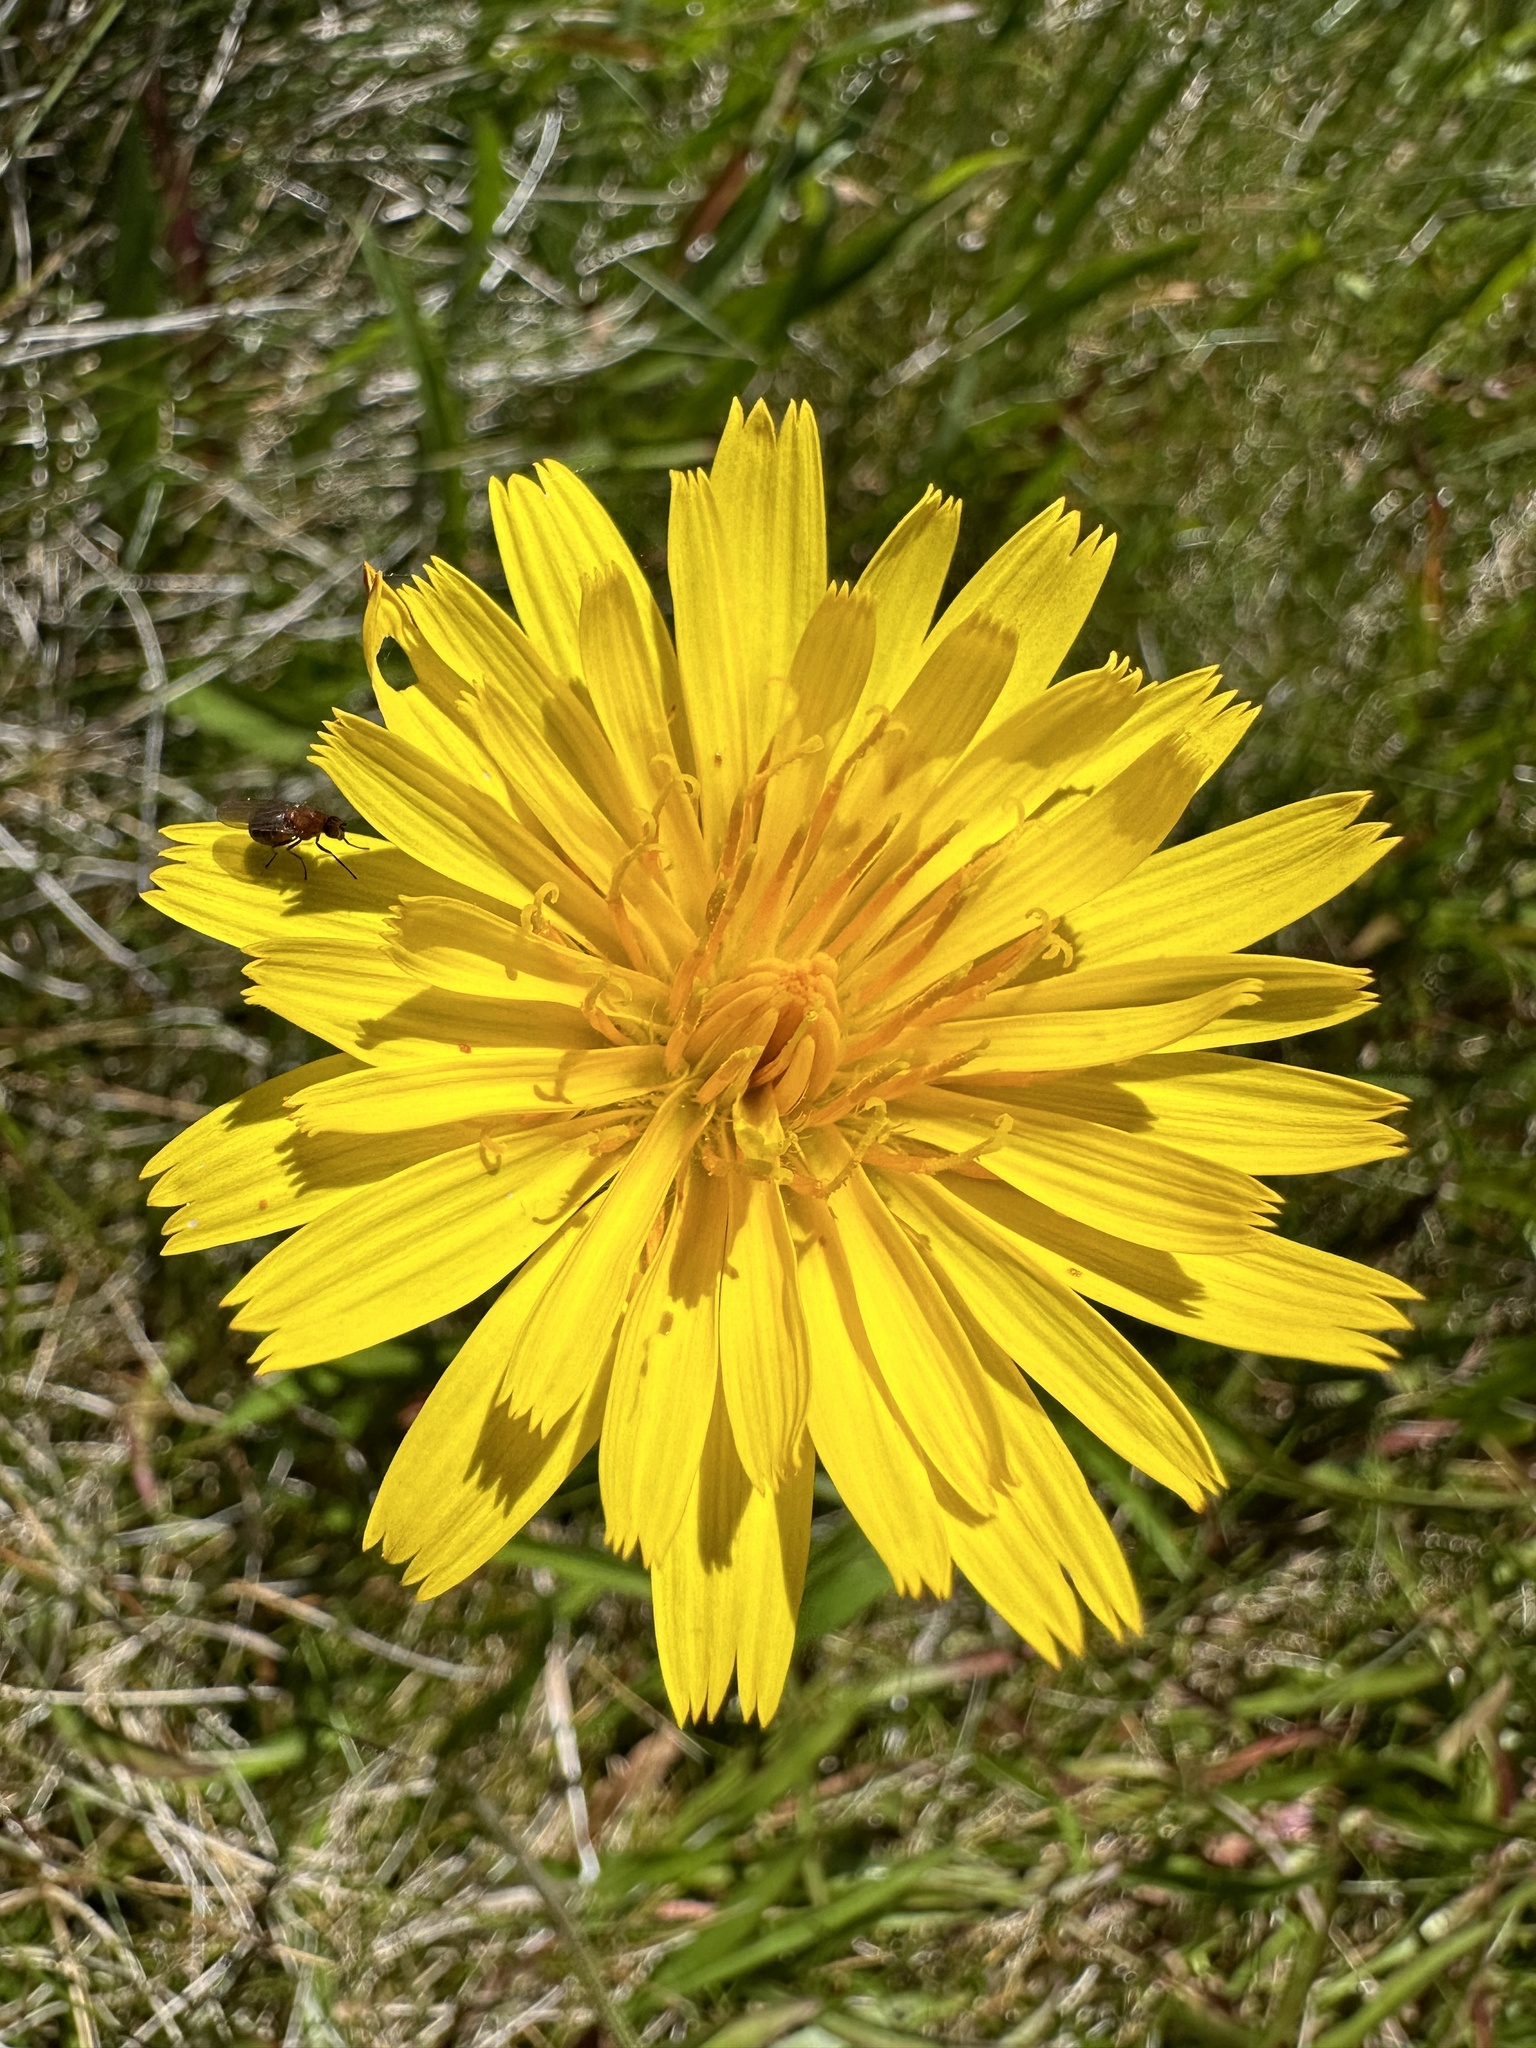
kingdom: Plantae
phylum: Tracheophyta
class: Magnoliopsida
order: Asterales
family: Asteraceae
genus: Microseris
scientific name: Microseris lanceolata
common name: Yam daisy
